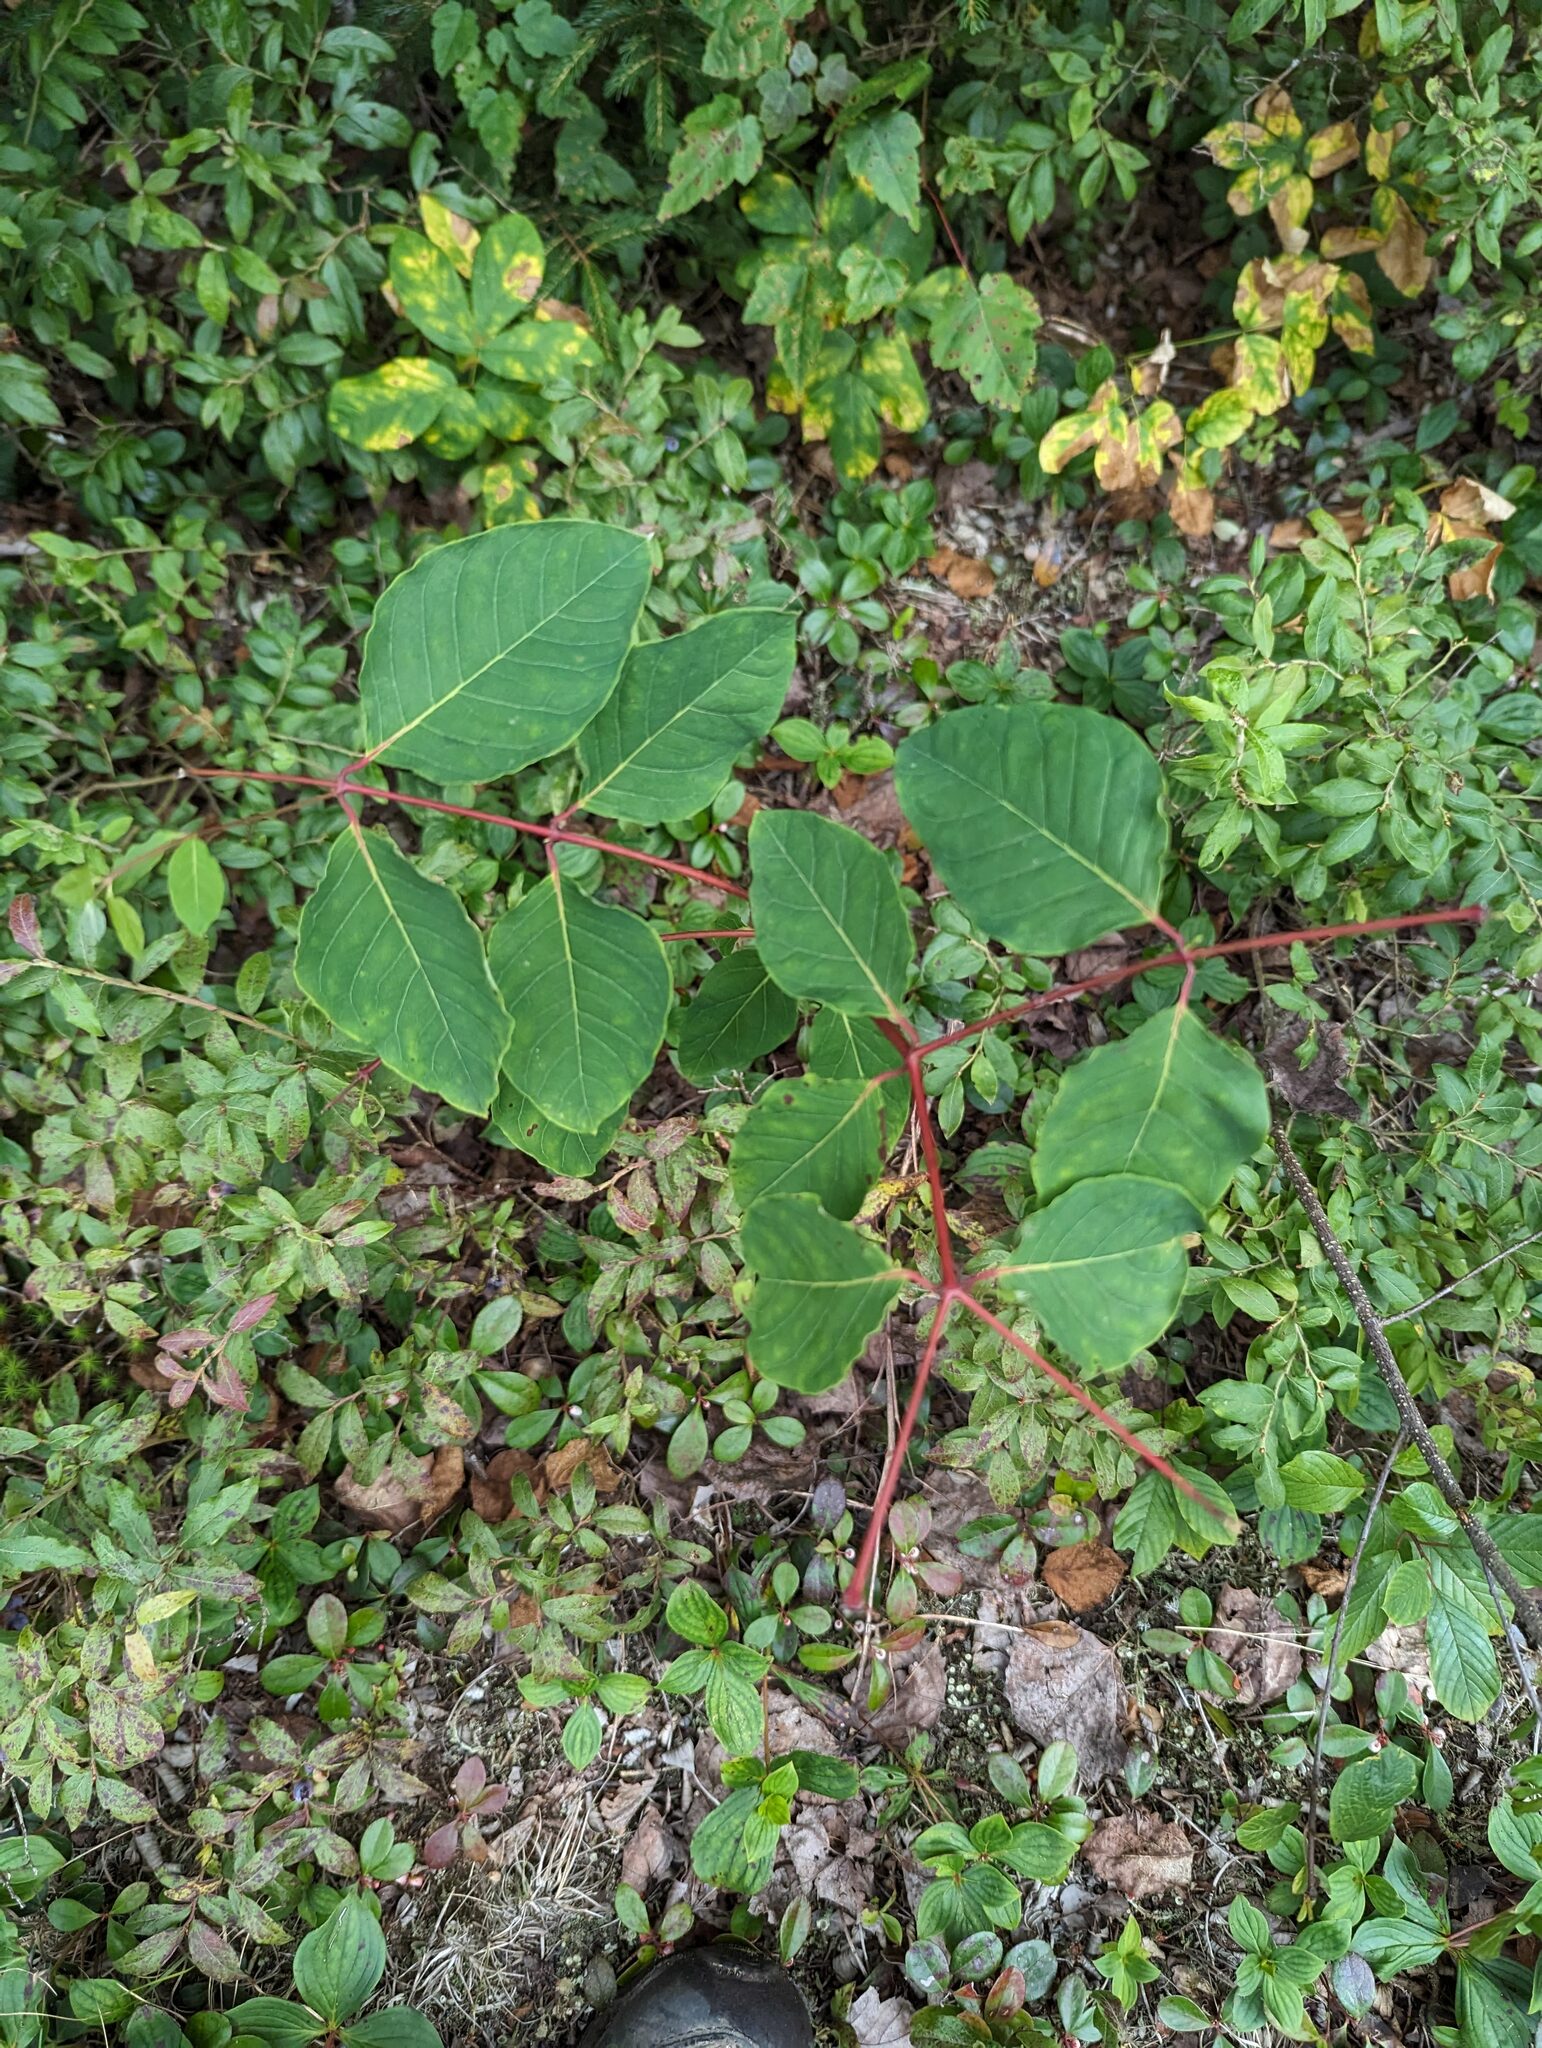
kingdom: Plantae
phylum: Tracheophyta
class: Magnoliopsida
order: Gentianales
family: Apocynaceae
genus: Apocynum
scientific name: Apocynum androsaemifolium
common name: Spreading dogbane
